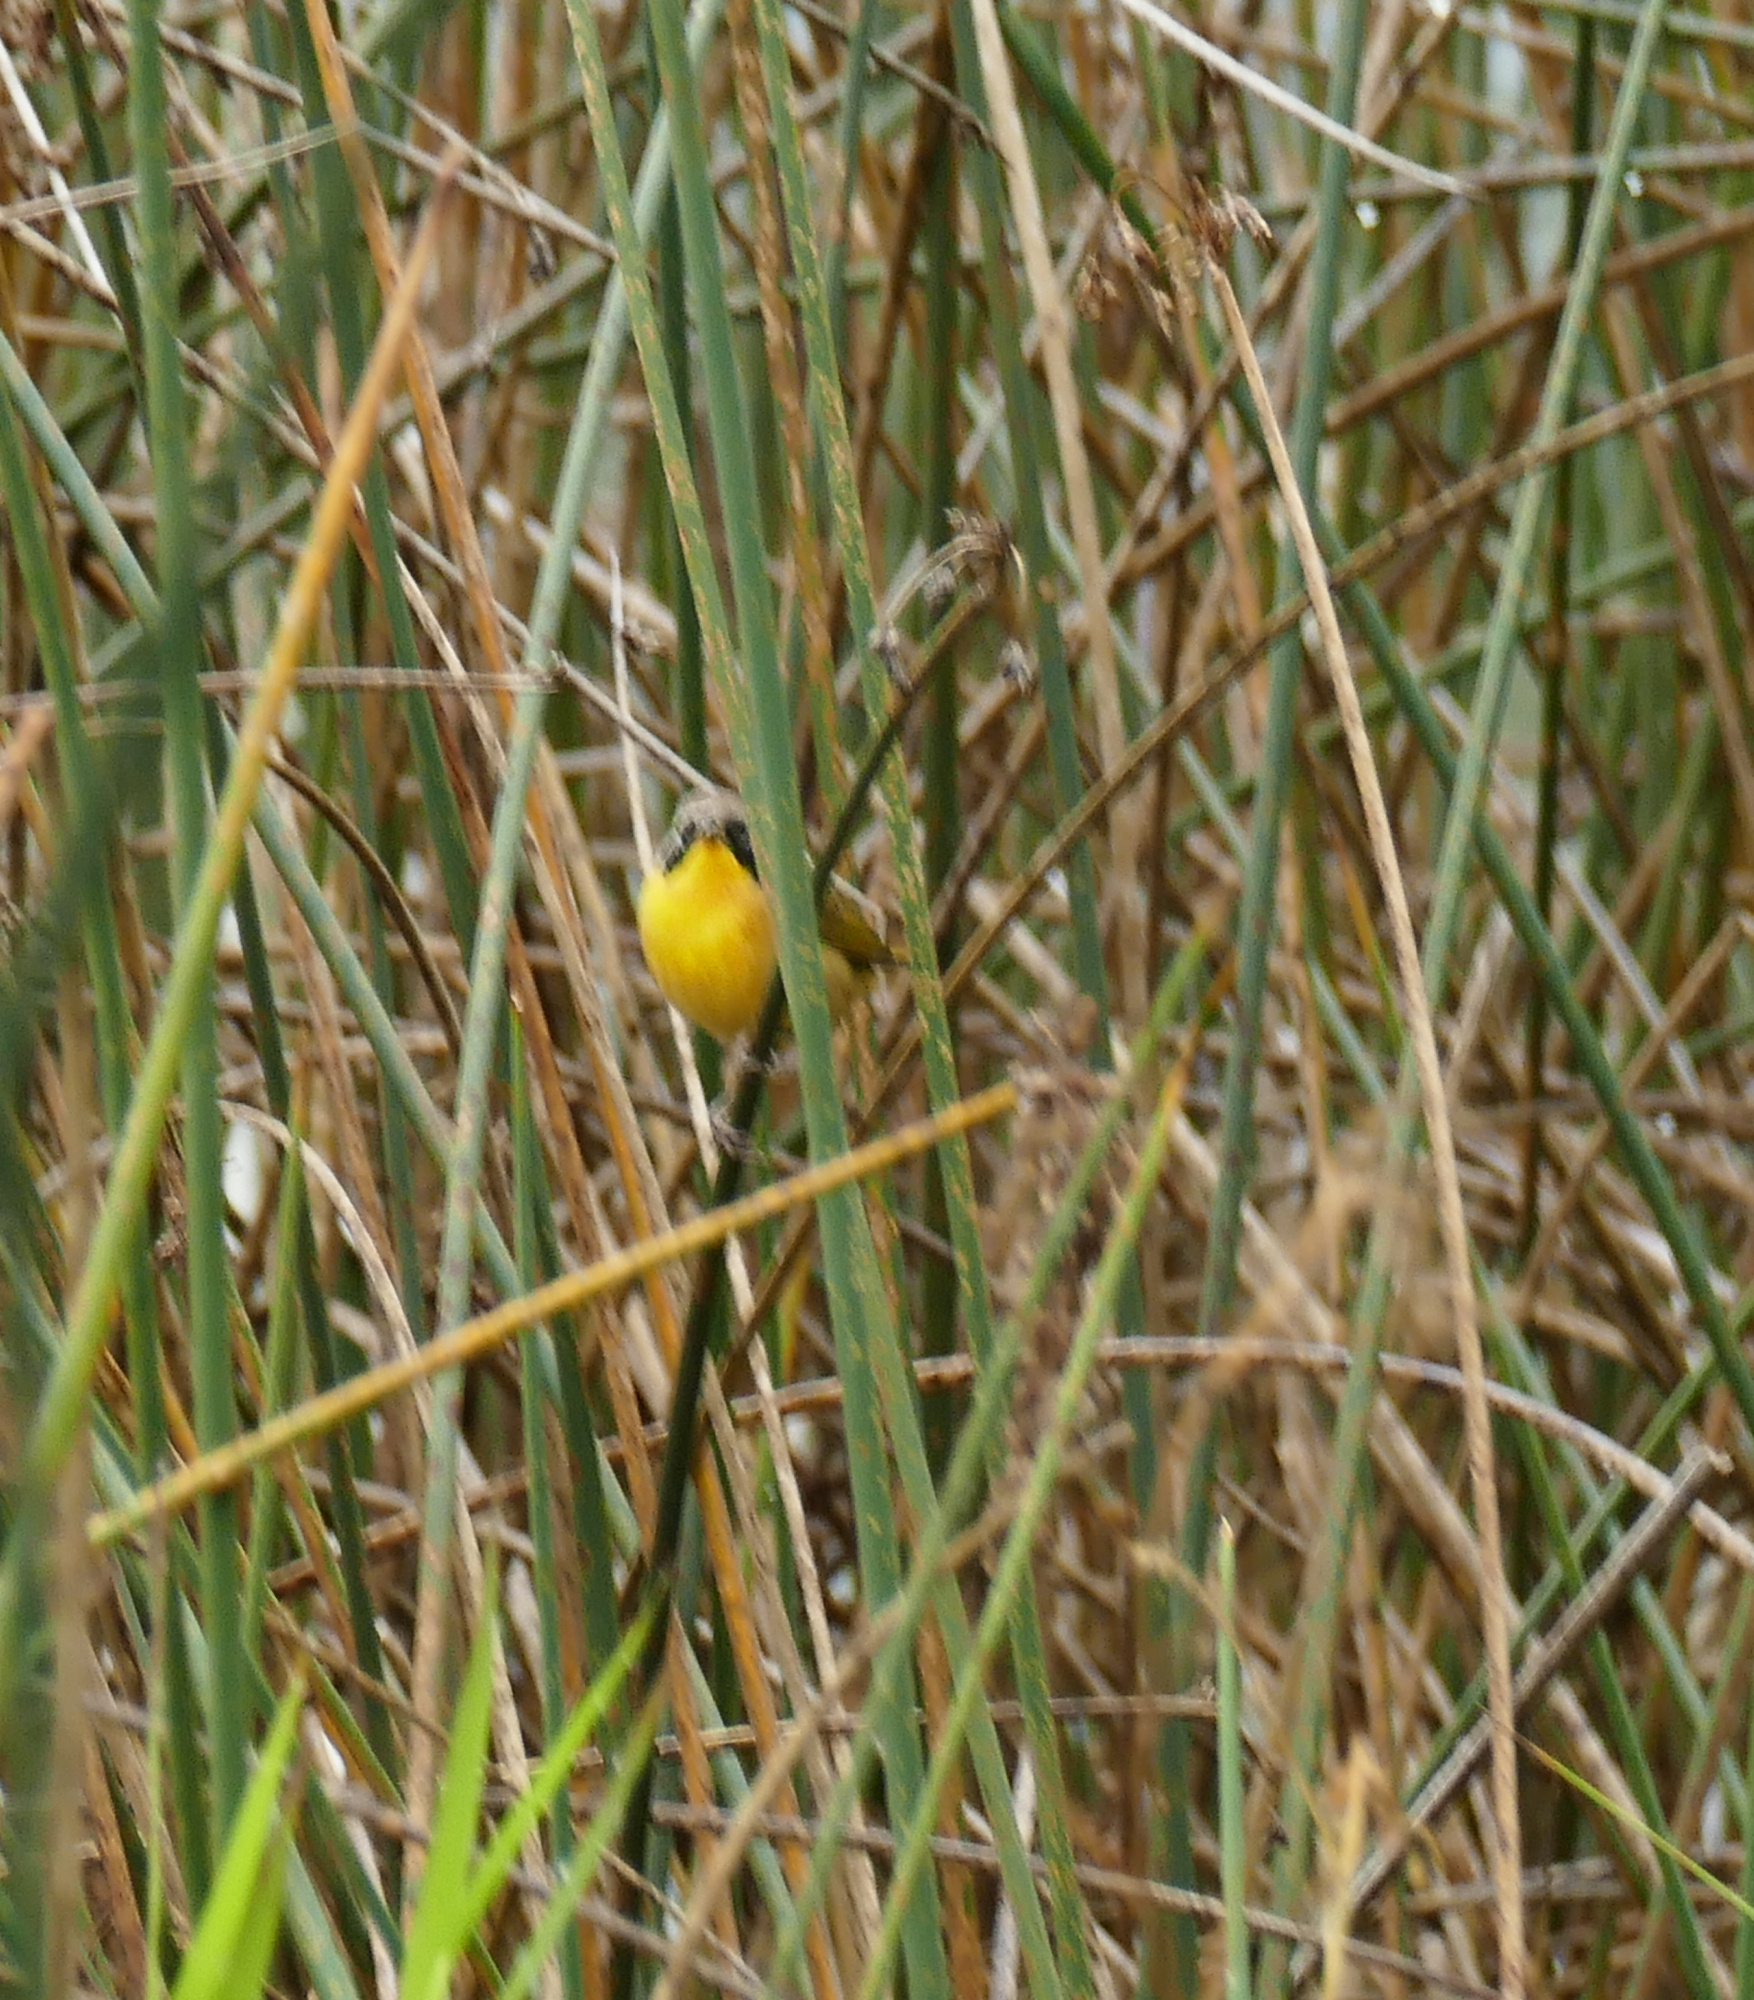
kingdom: Animalia
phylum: Chordata
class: Aves
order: Passeriformes
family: Parulidae
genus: Geothlypis
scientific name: Geothlypis trichas
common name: Common yellowthroat
